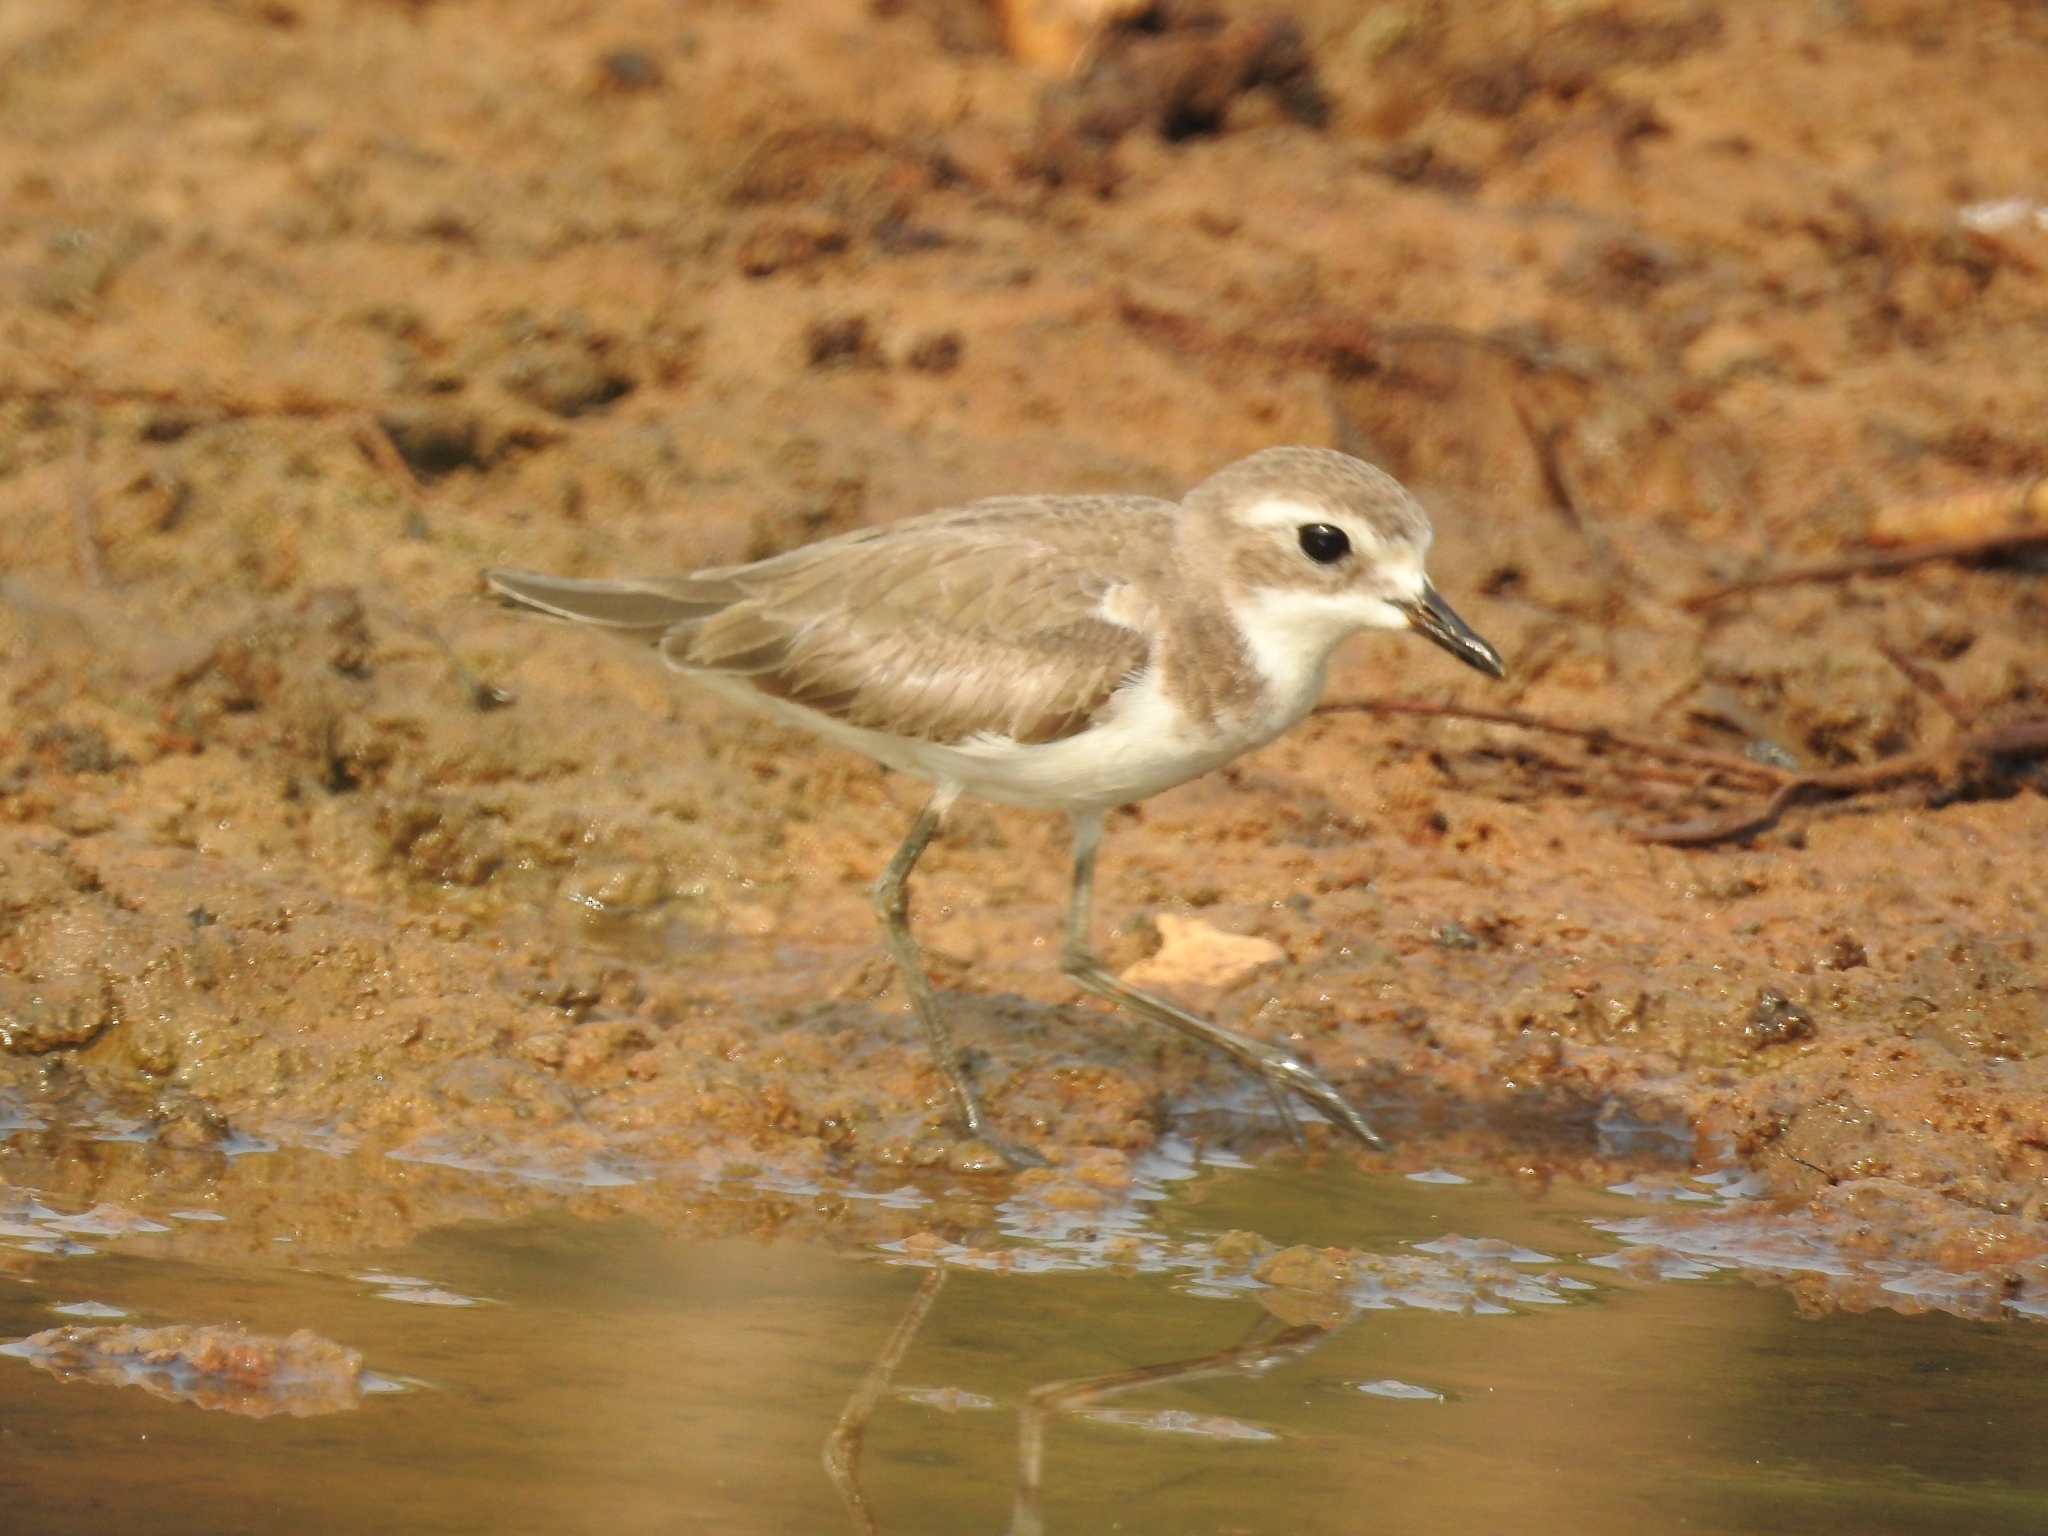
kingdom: Animalia
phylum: Chordata
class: Aves
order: Charadriiformes
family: Charadriidae
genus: Anarhynchus
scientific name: Anarhynchus
